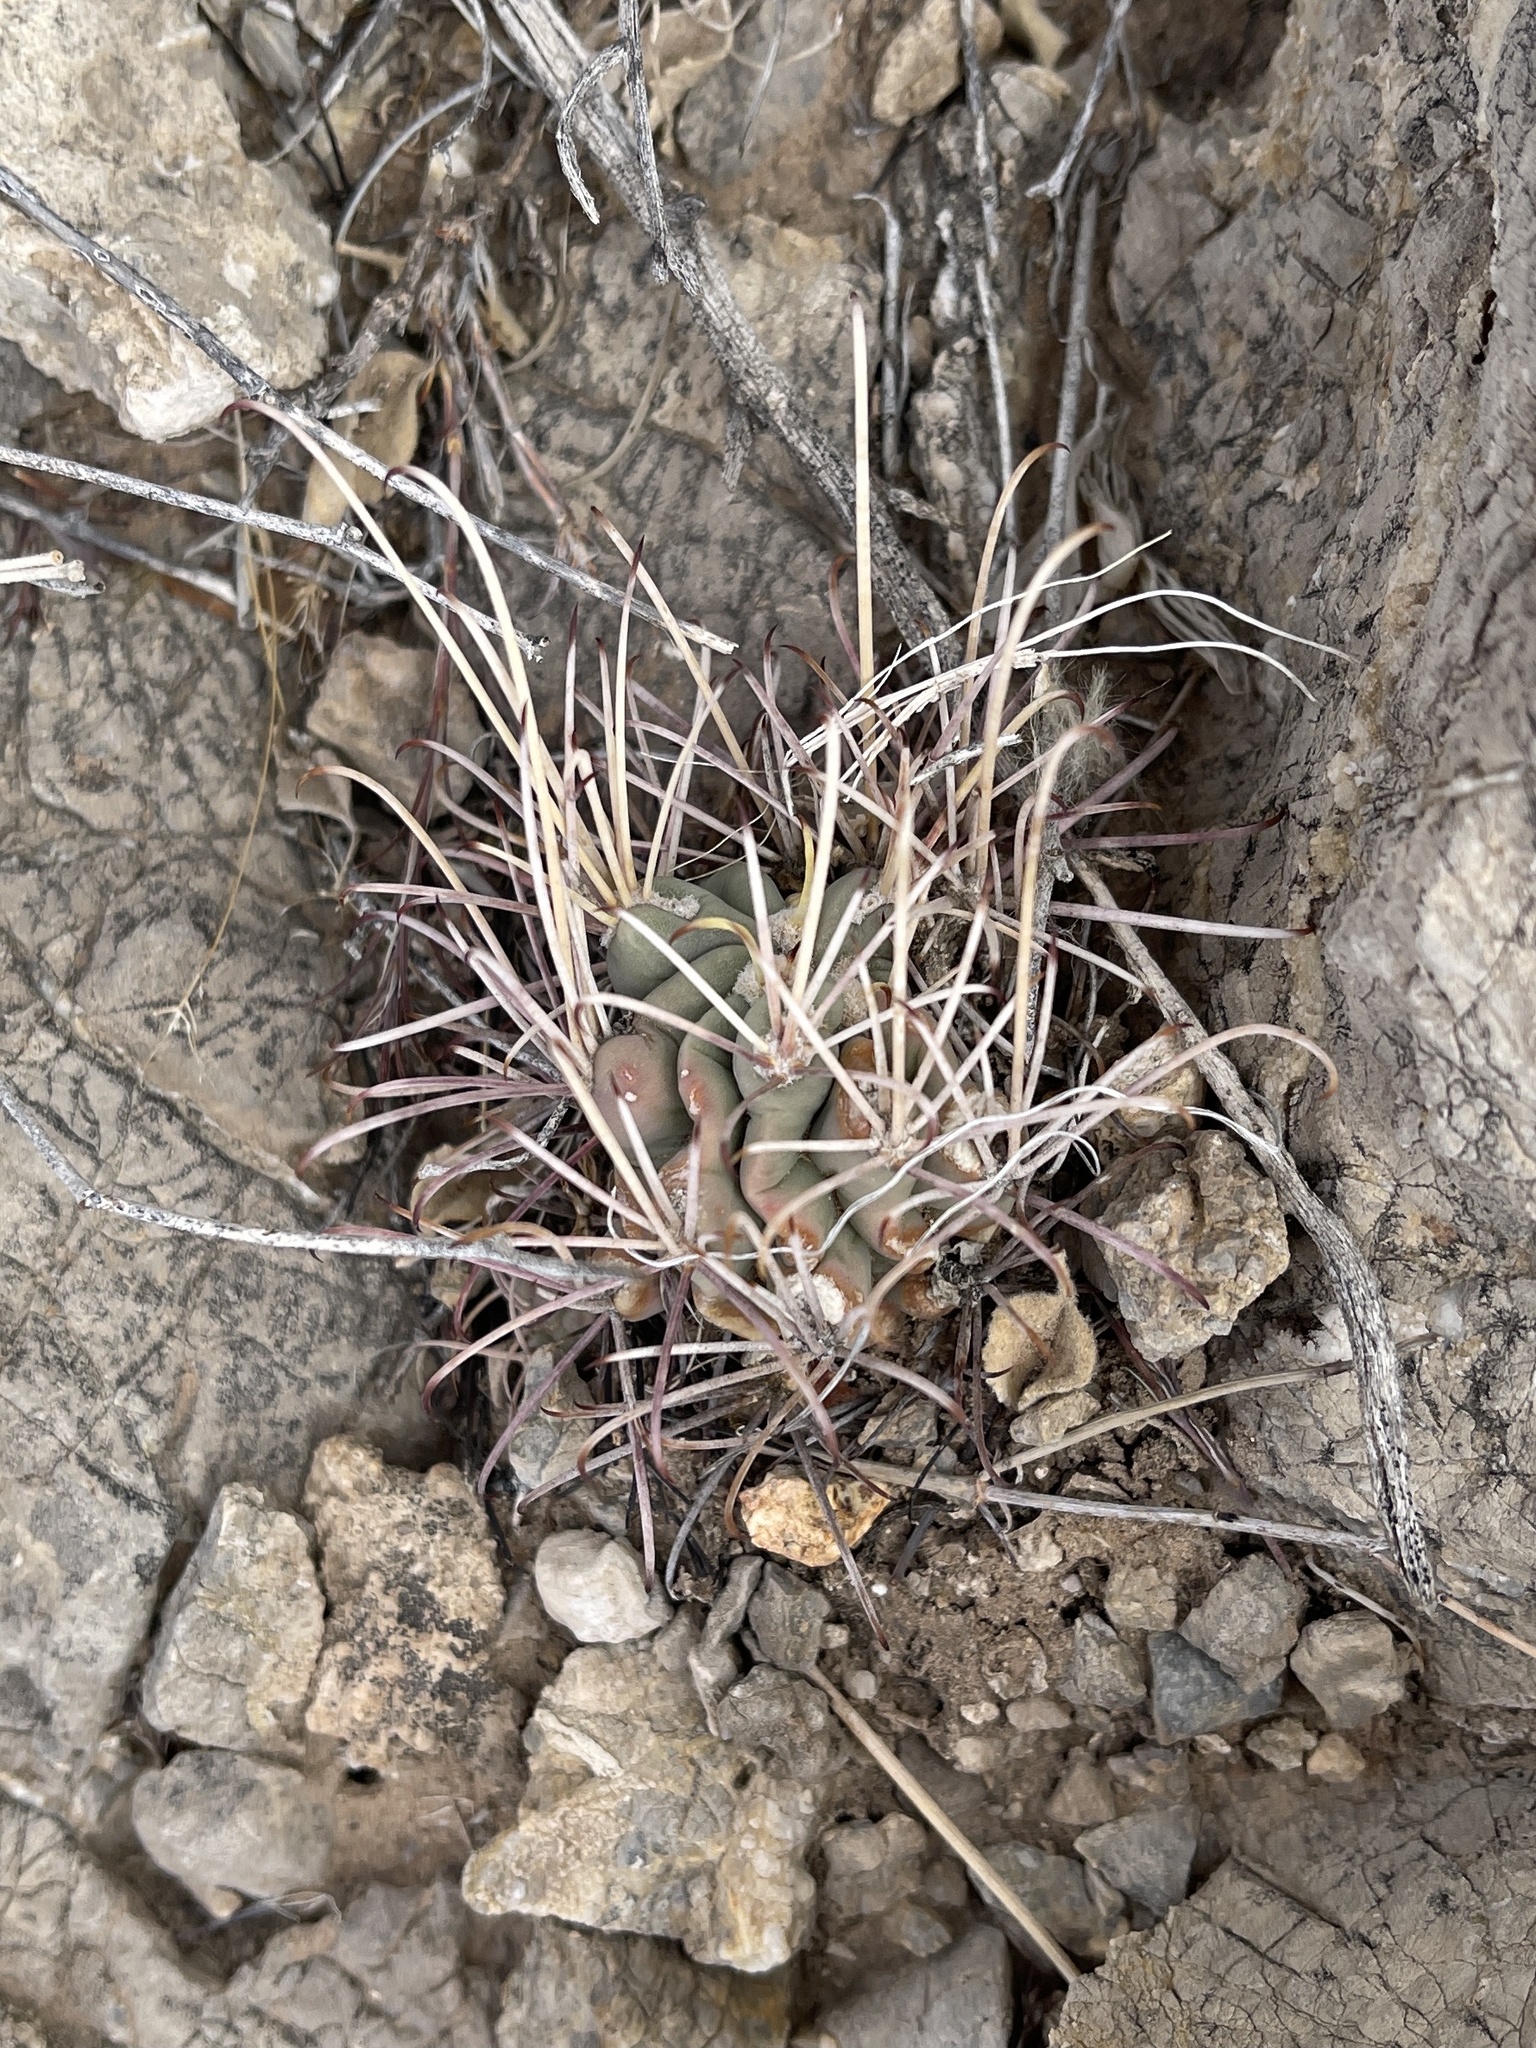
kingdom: Plantae
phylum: Tracheophyta
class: Magnoliopsida
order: Caryophyllales
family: Cactaceae
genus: Ferocactus
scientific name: Ferocactus uncinatus
